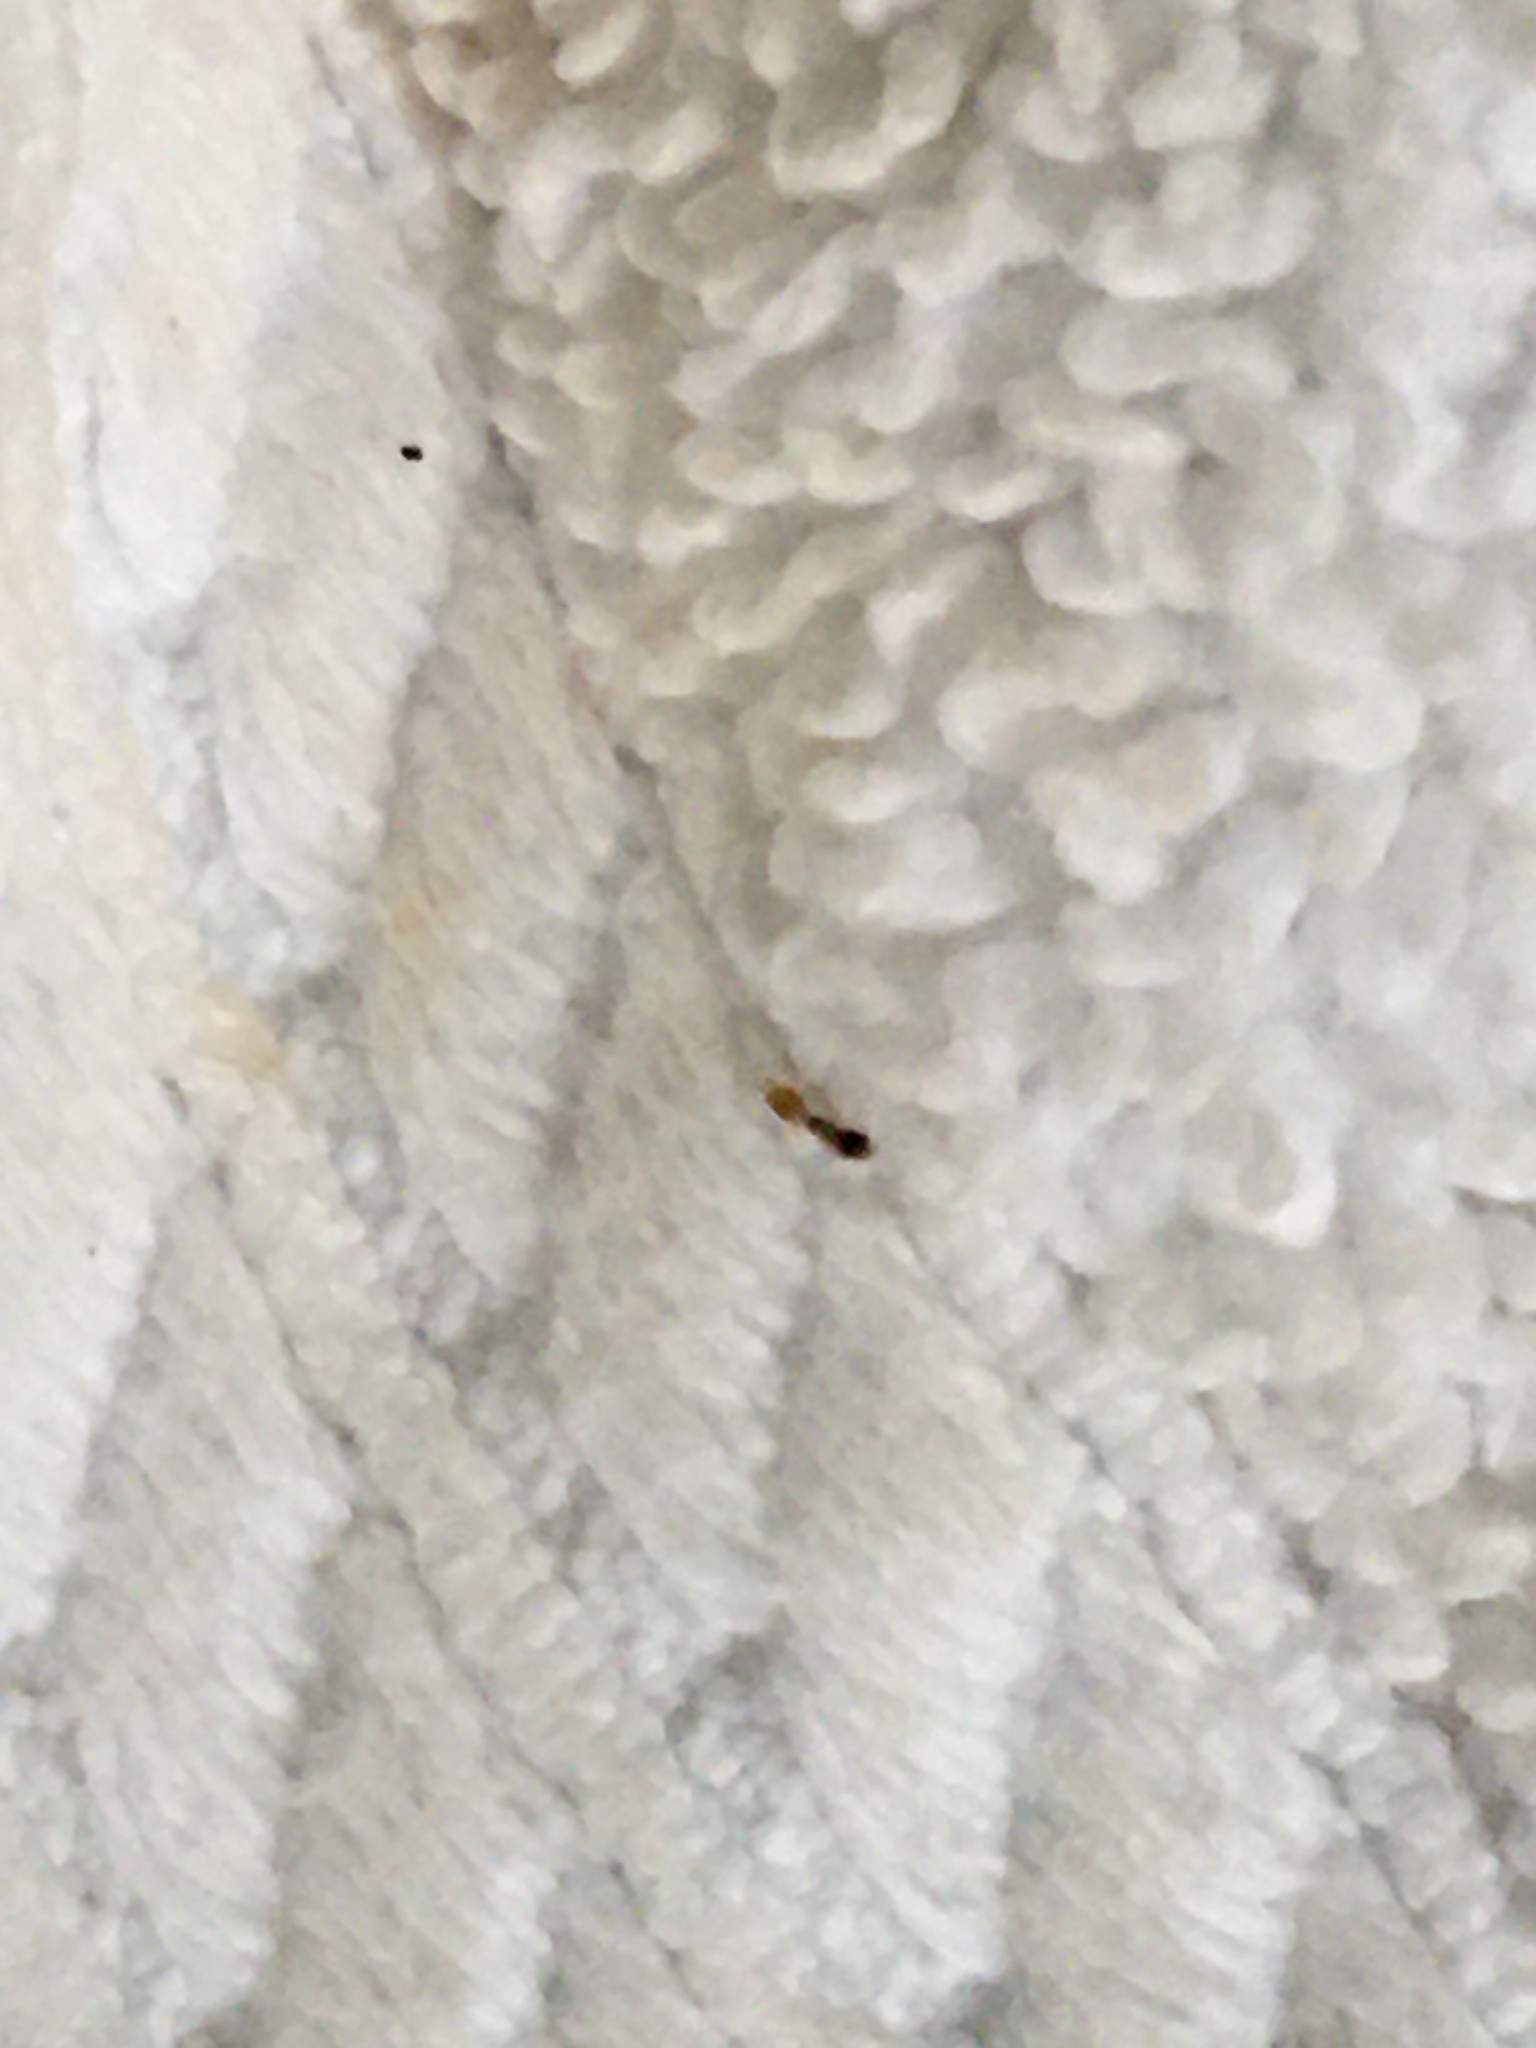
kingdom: Animalia
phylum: Arthropoda
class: Insecta
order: Hymenoptera
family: Formicidae
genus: Tapinoma
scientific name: Tapinoma melanocephalum
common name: Ghost ant
